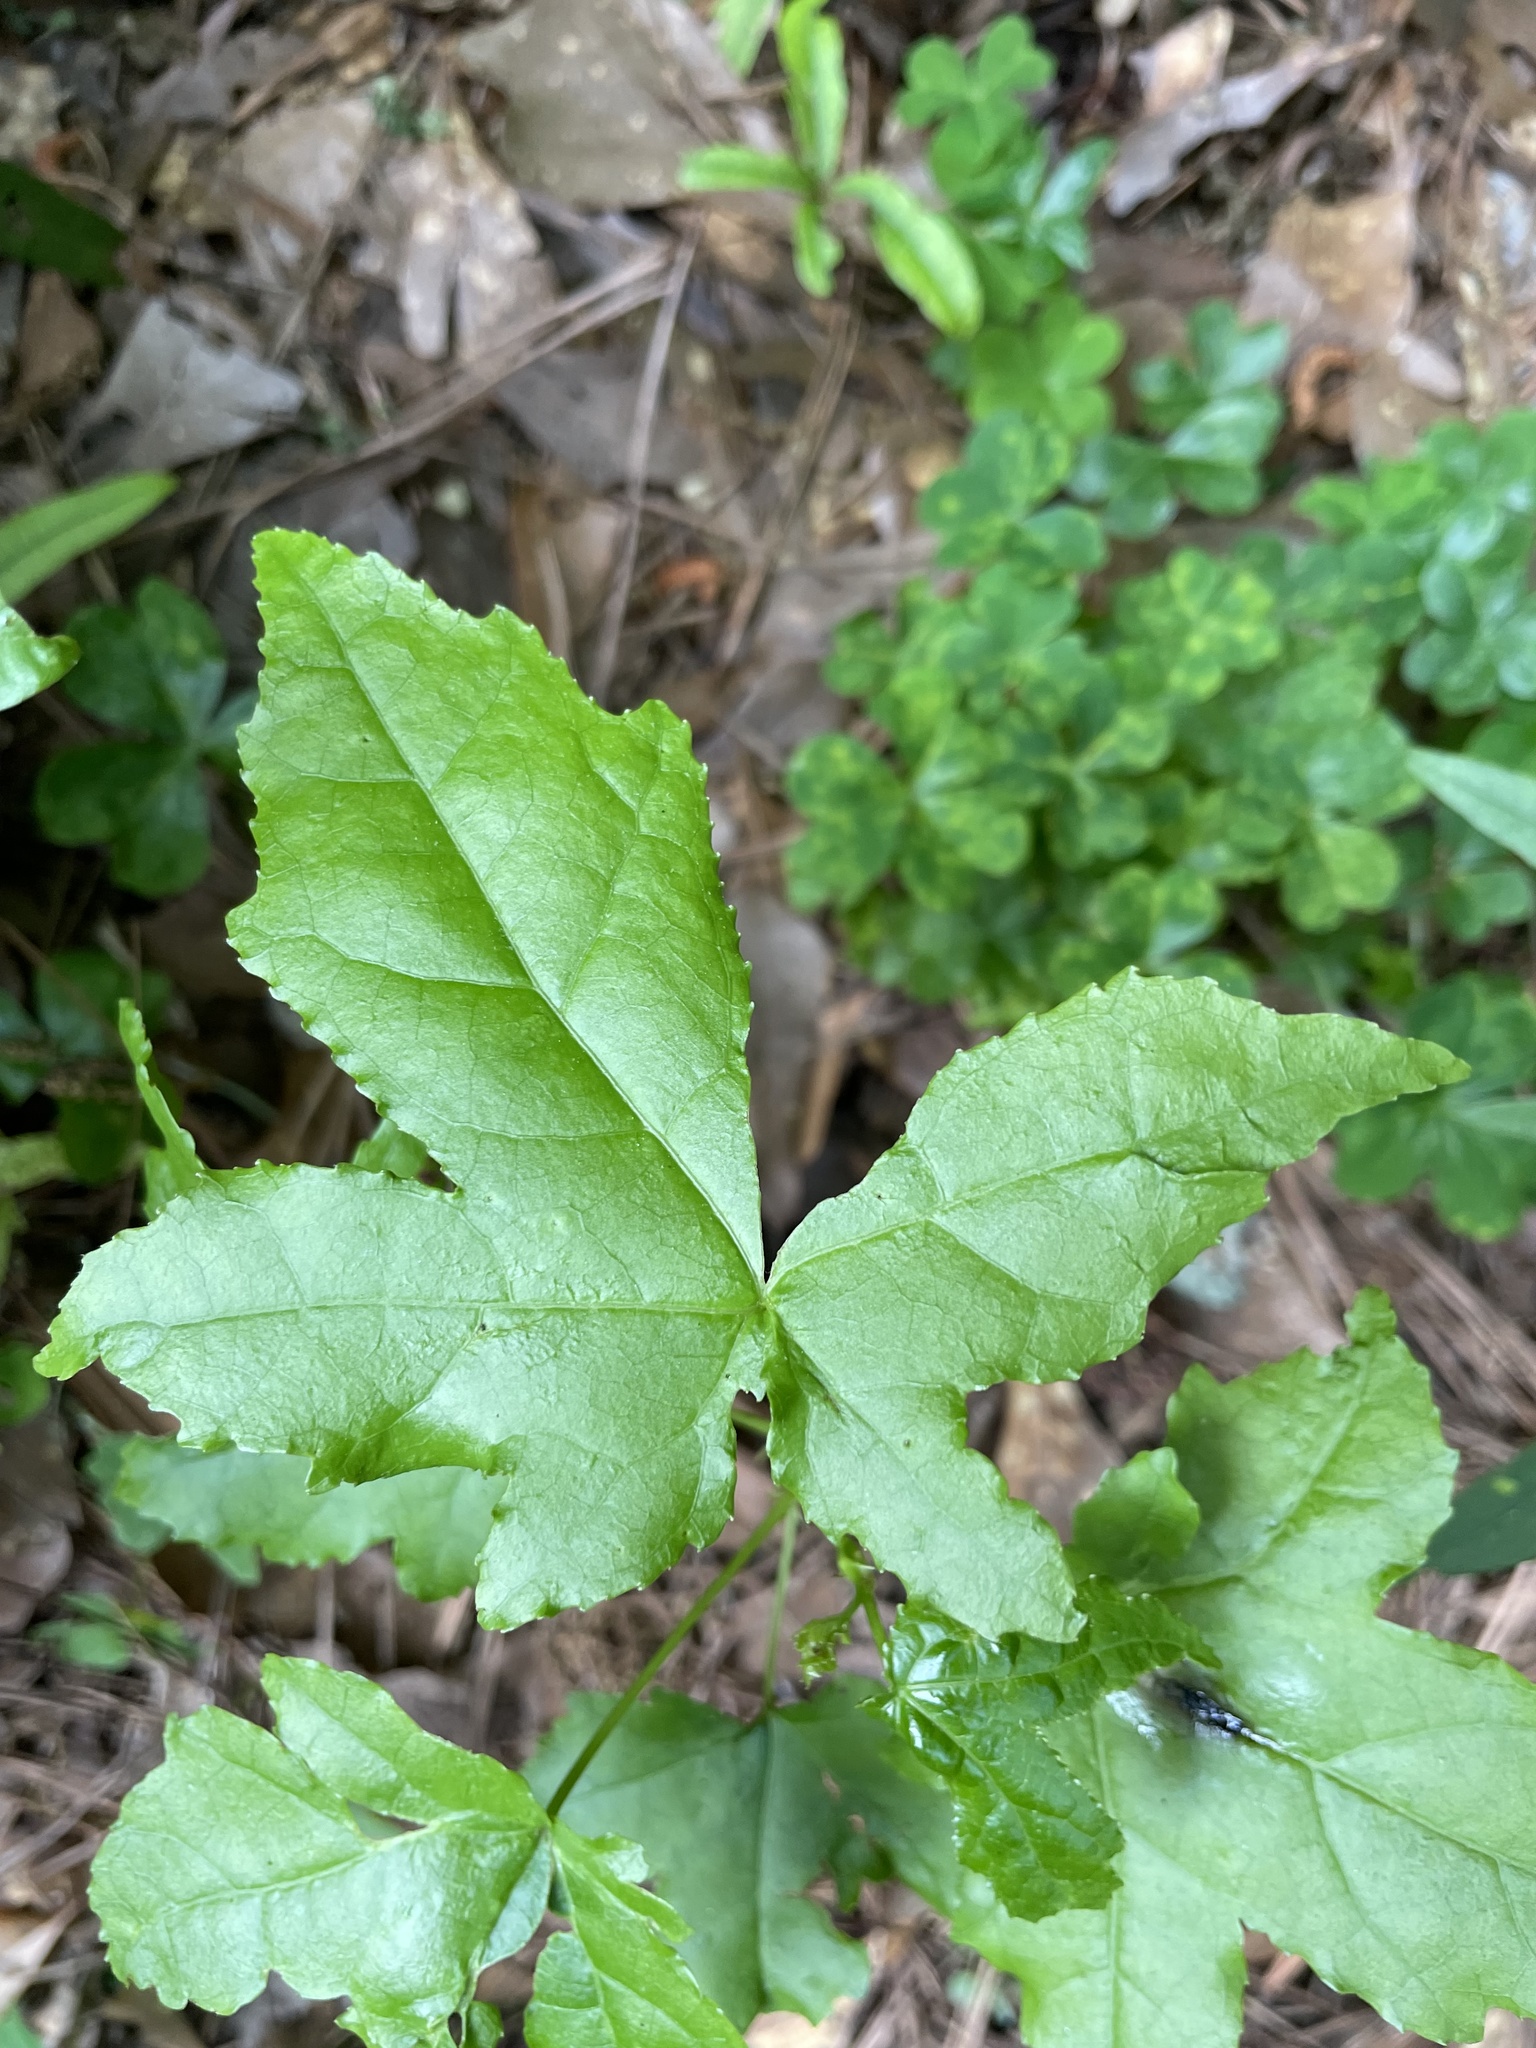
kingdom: Plantae
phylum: Tracheophyta
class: Magnoliopsida
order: Saxifragales
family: Altingiaceae
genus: Liquidambar
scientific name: Liquidambar styraciflua
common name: Sweet gum
